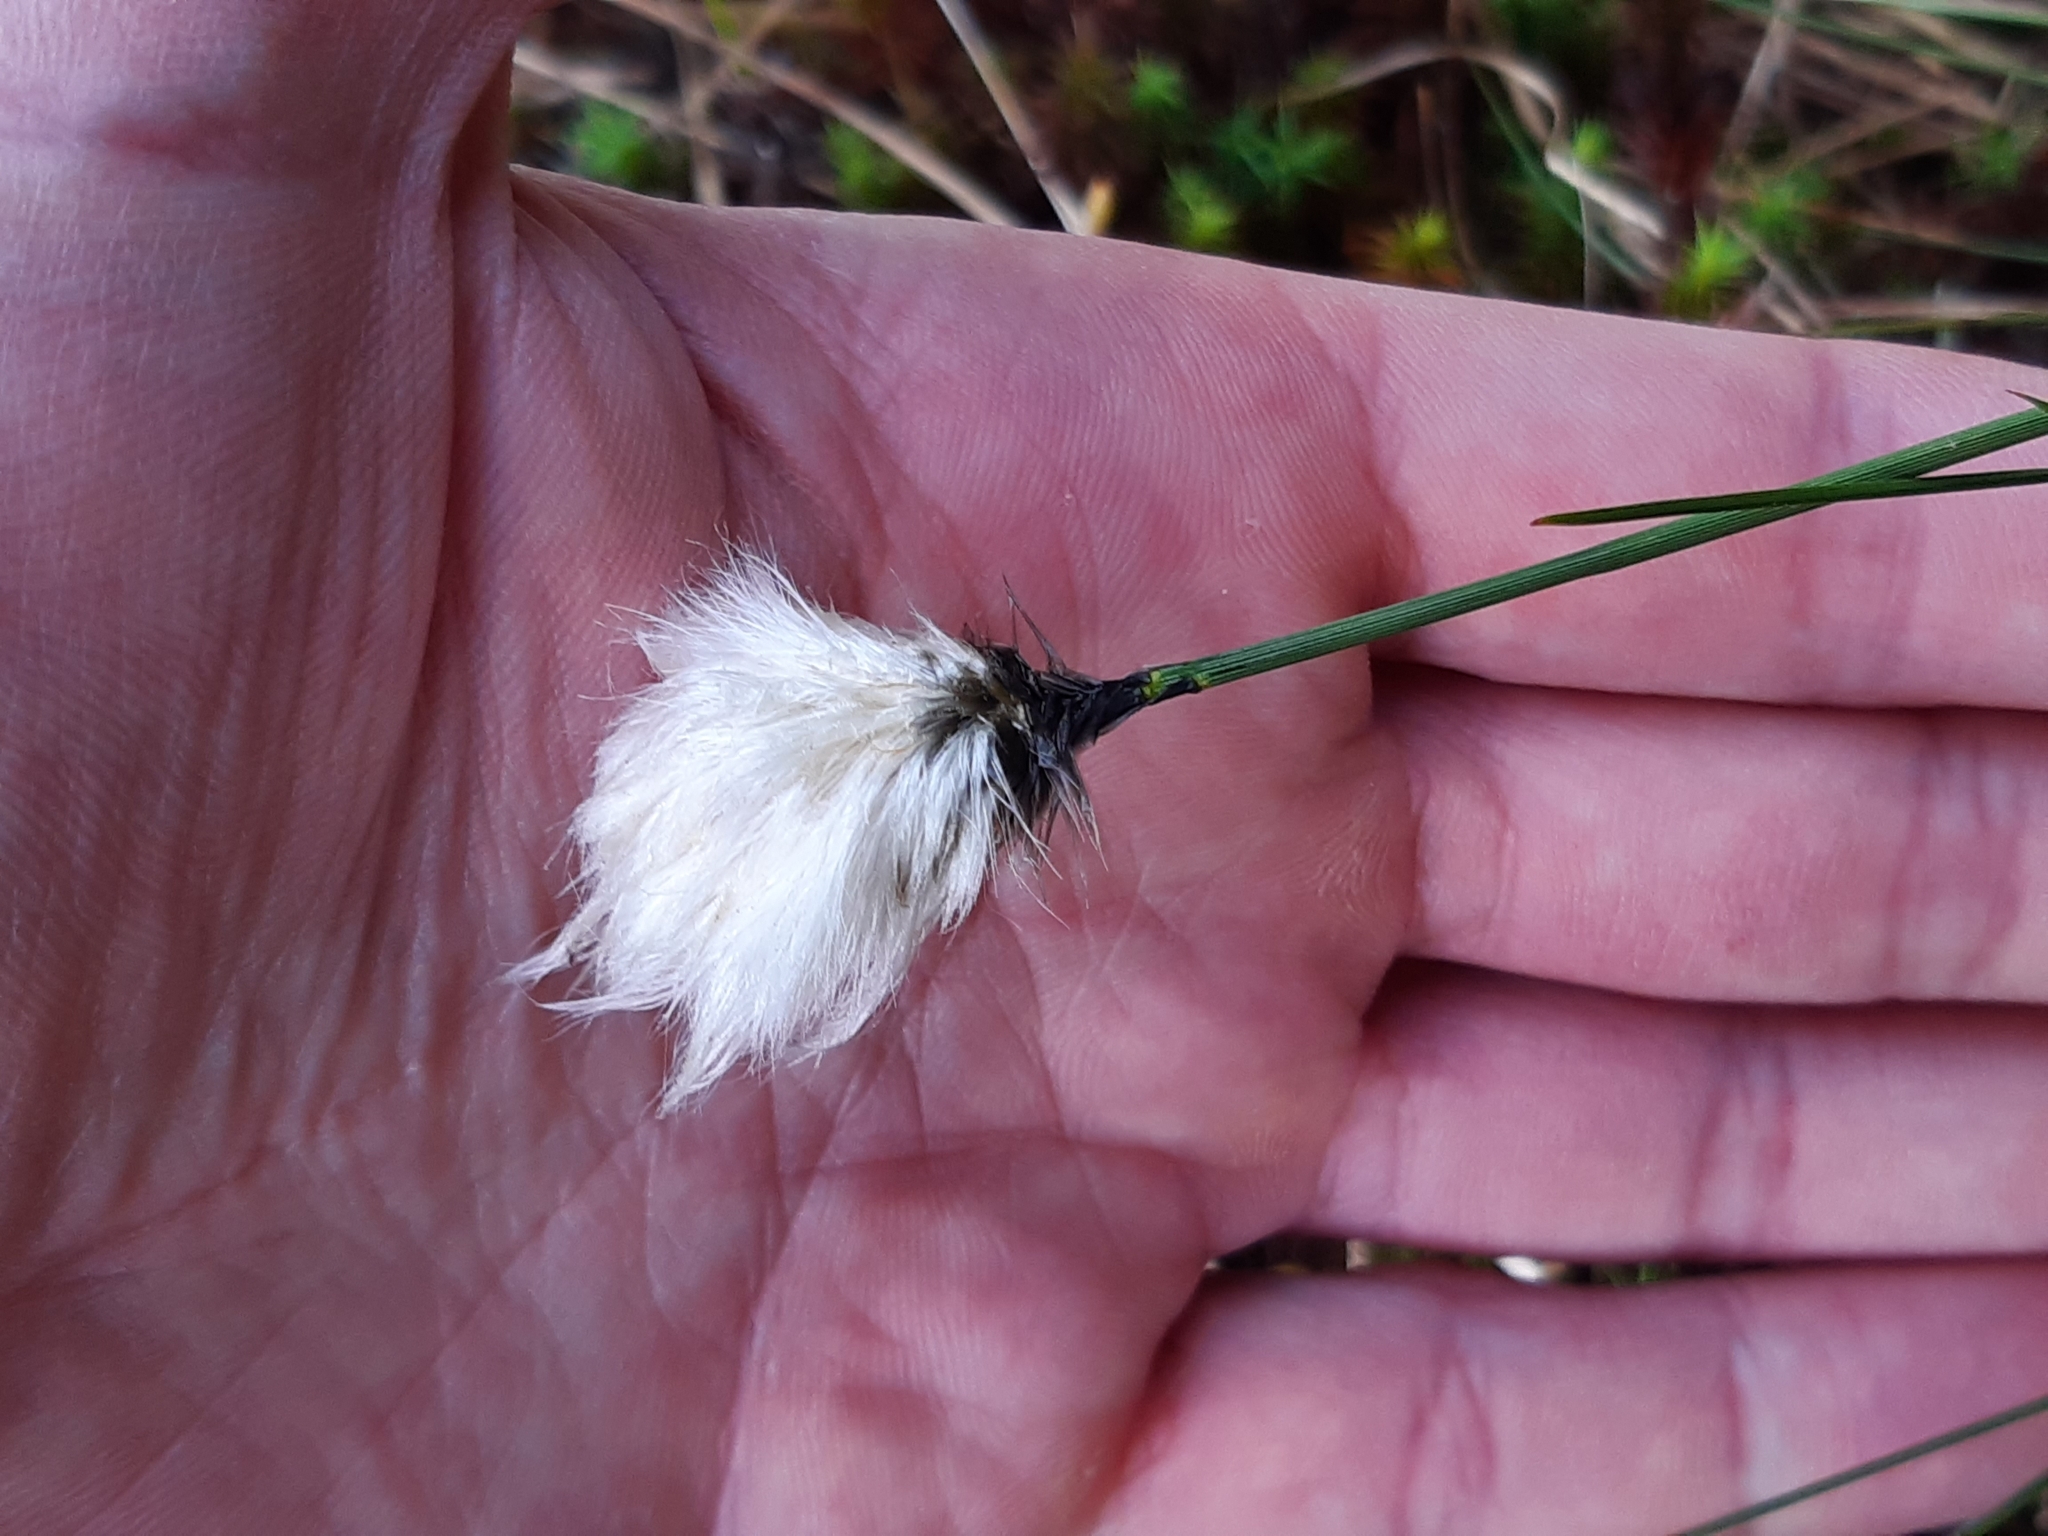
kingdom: Plantae
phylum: Tracheophyta
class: Liliopsida
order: Poales
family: Cyperaceae
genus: Eriophorum
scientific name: Eriophorum vaginatum
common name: Hare's-tail cottongrass
